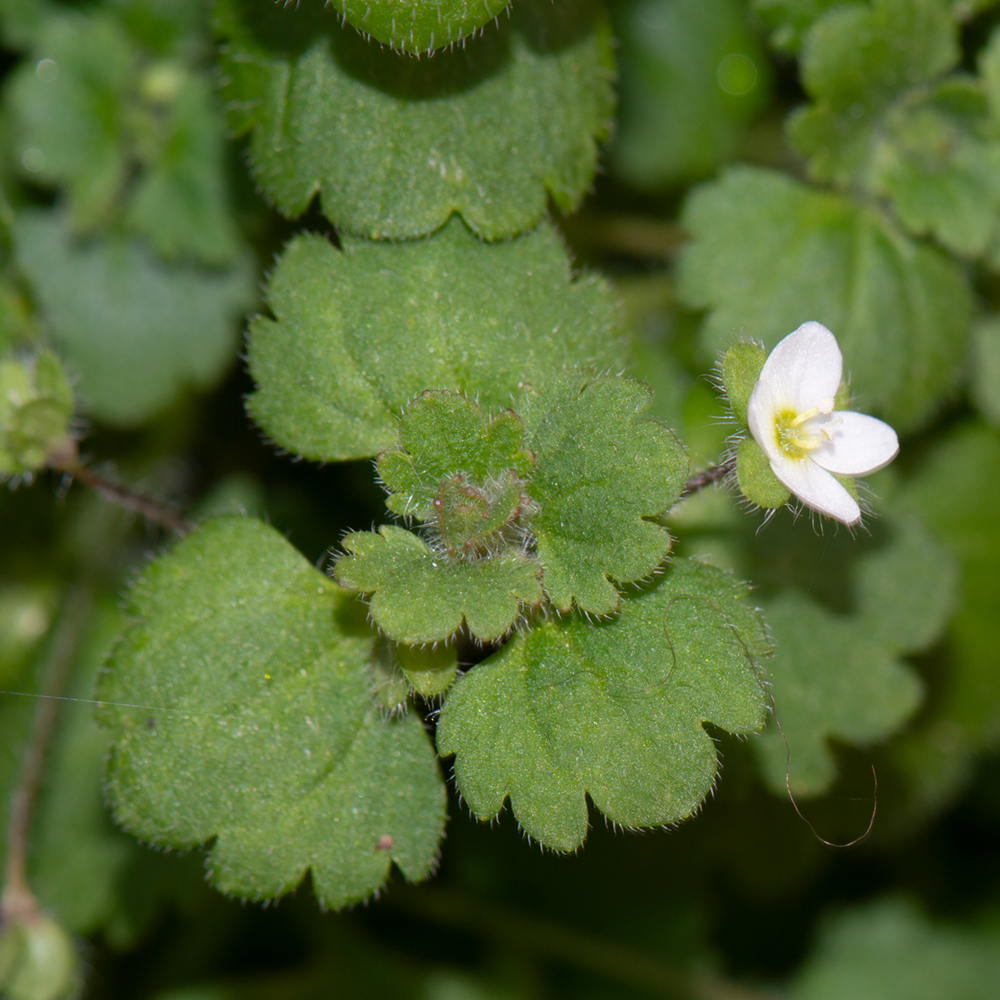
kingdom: Plantae
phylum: Tracheophyta
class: Magnoliopsida
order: Lamiales
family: Plantaginaceae
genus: Veronica
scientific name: Veronica cymbalaria
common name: Pale speedwell
